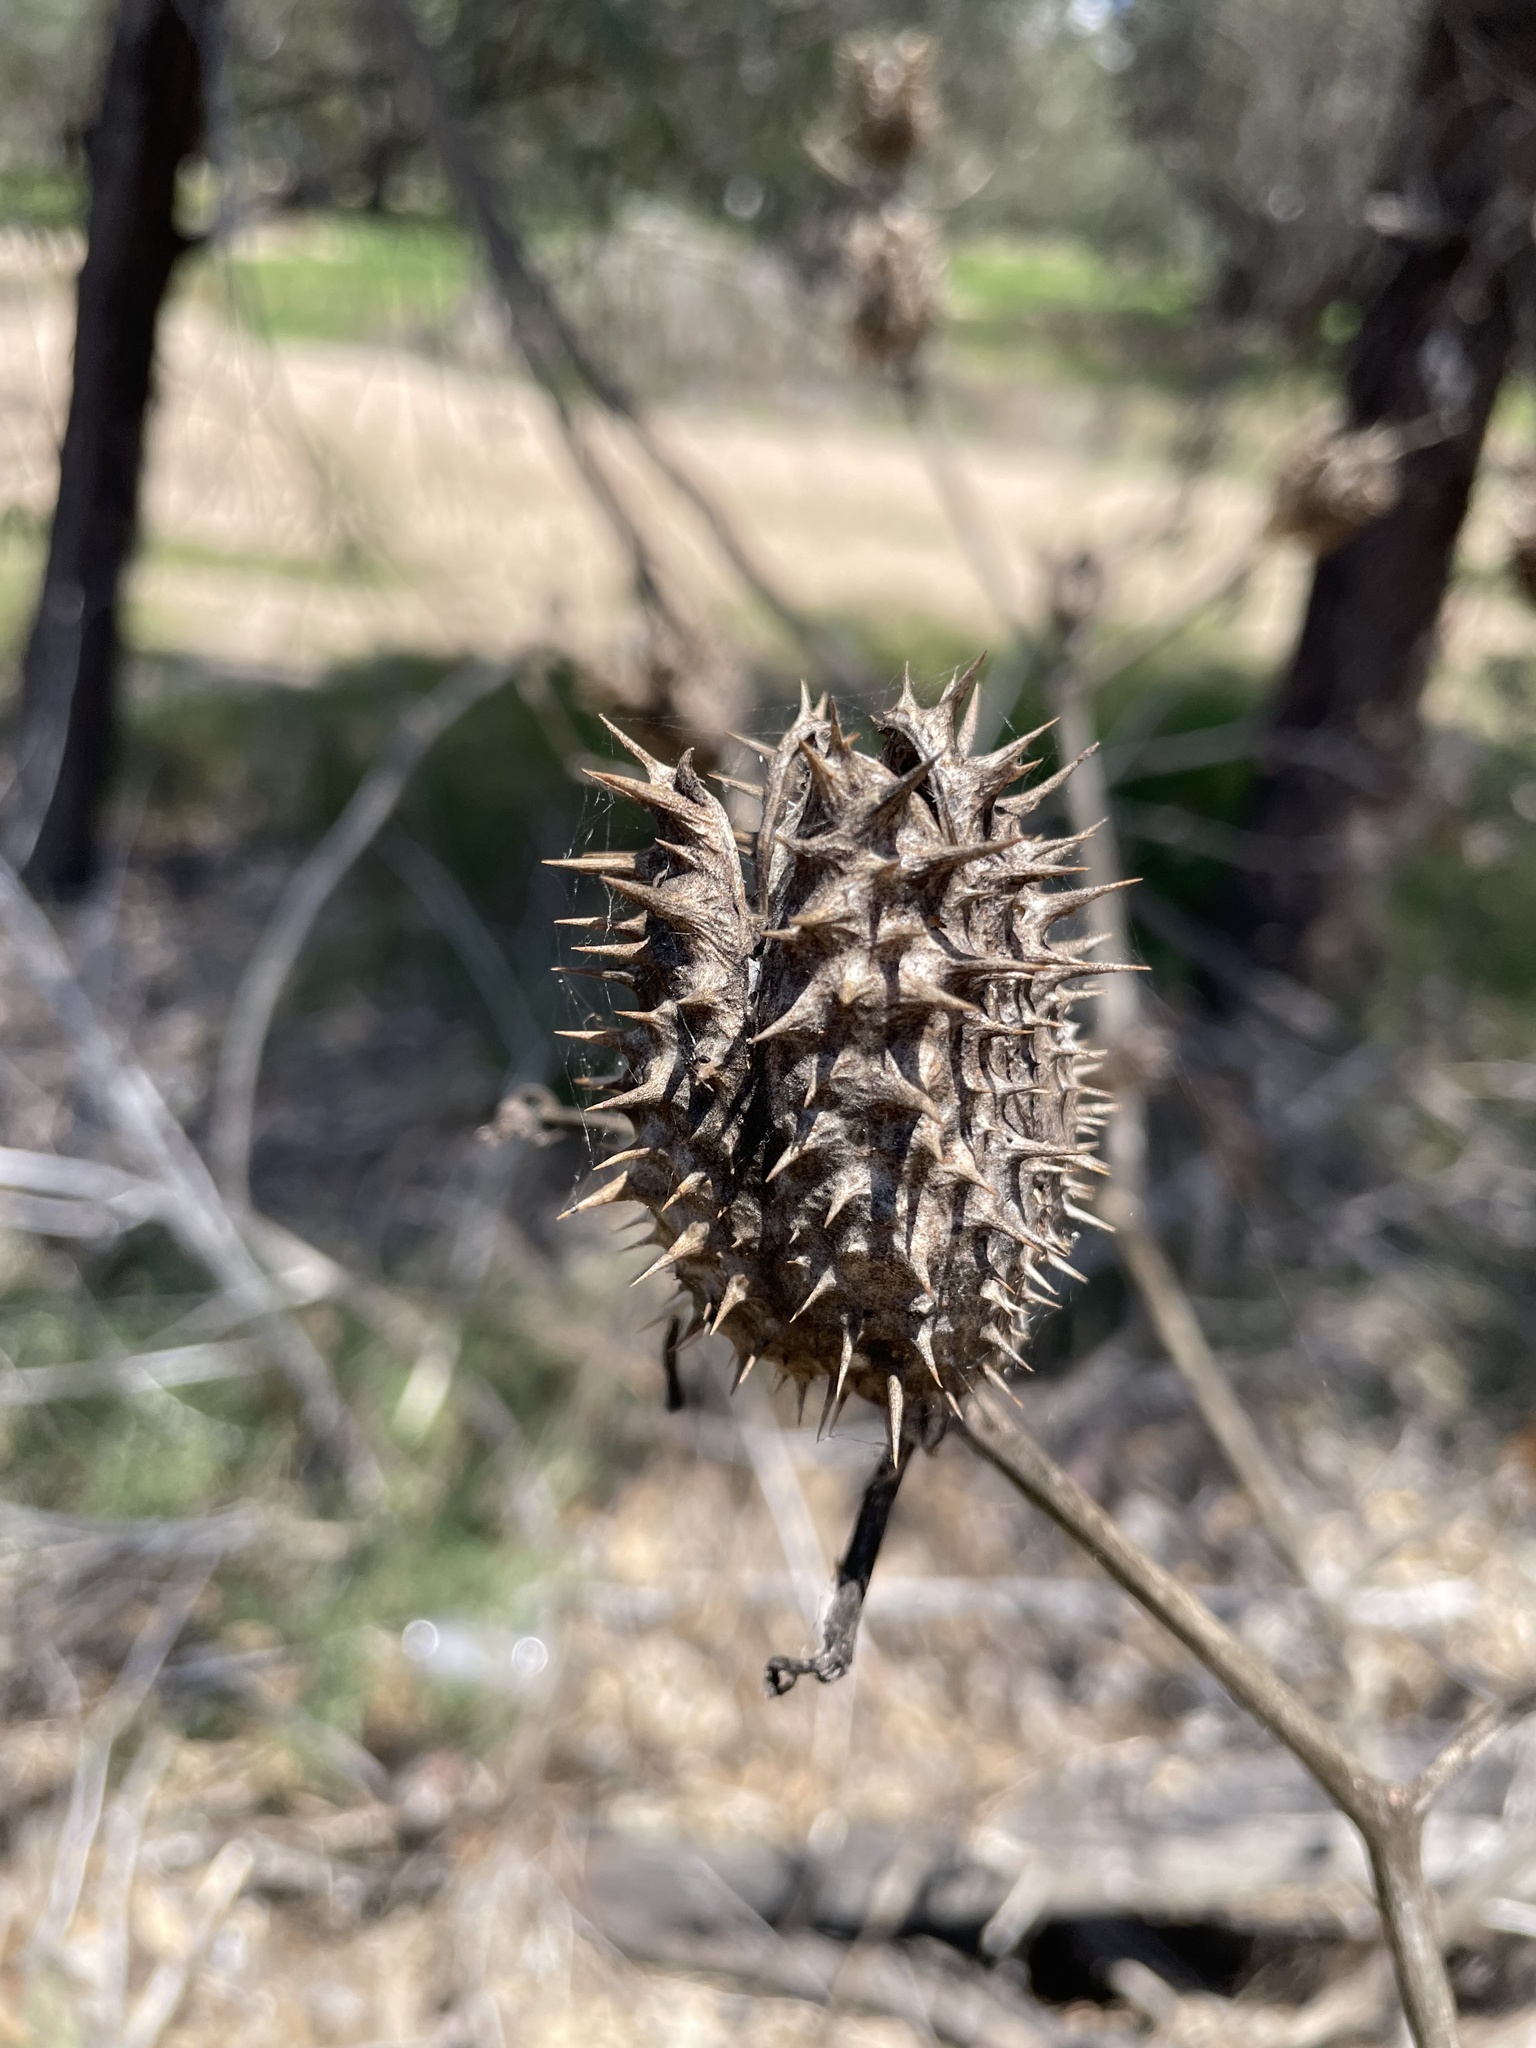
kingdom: Plantae
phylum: Tracheophyta
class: Magnoliopsida
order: Solanales
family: Solanaceae
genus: Datura
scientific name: Datura stramonium
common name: Thorn-apple
